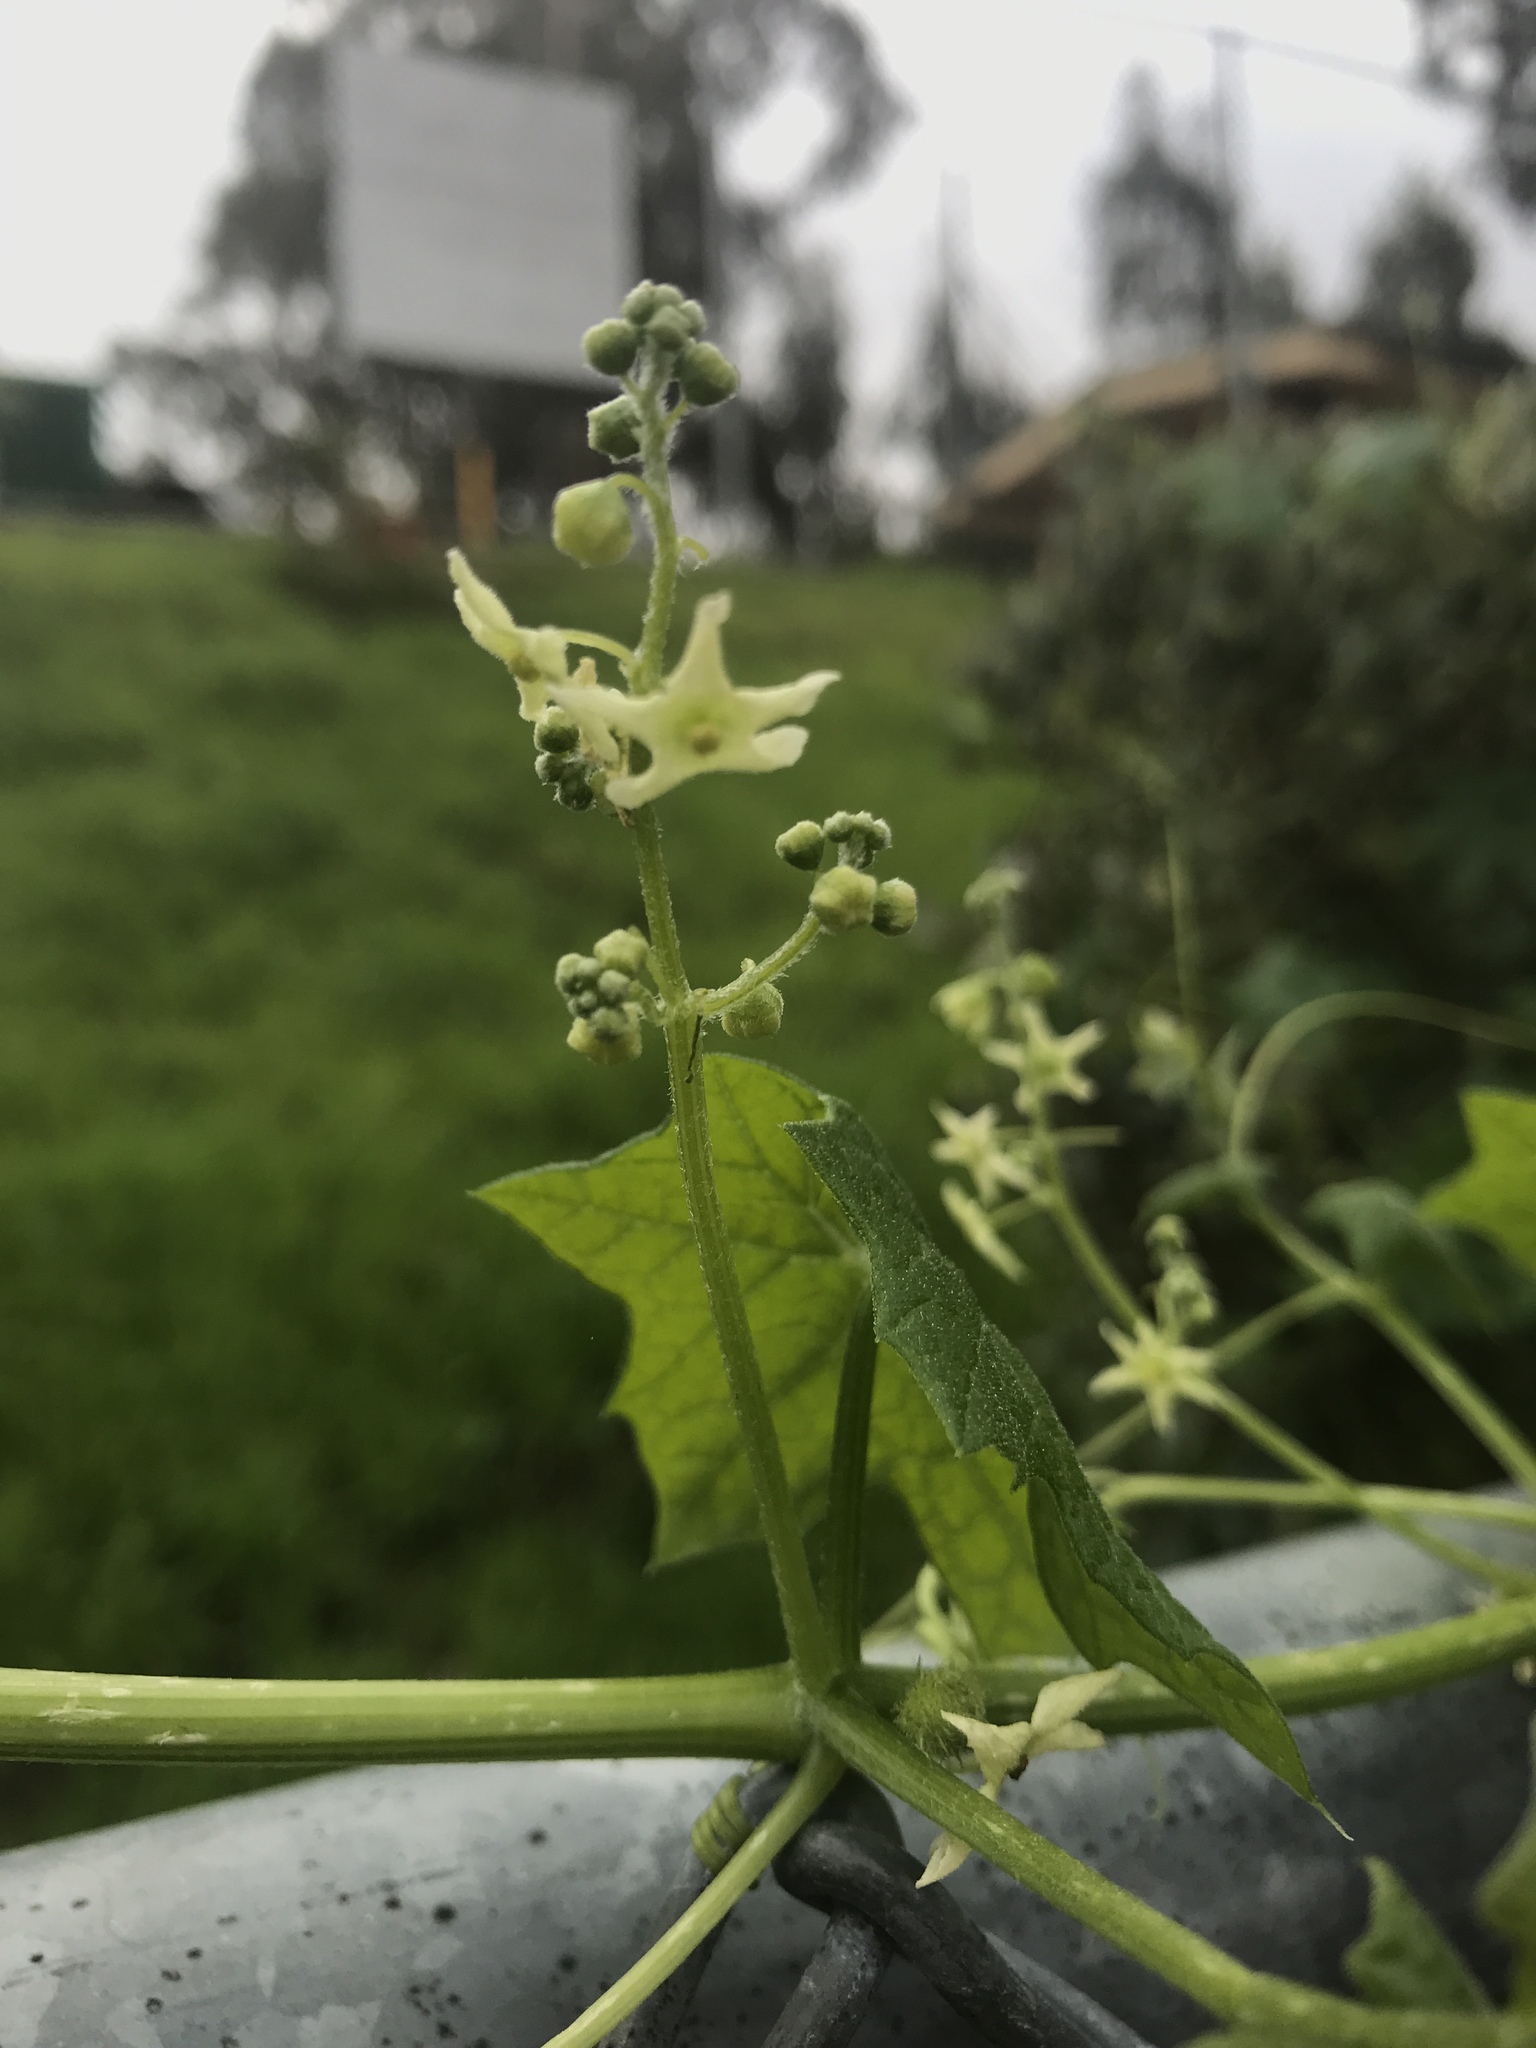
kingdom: Plantae
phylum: Tracheophyta
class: Magnoliopsida
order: Cucurbitales
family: Cucurbitaceae
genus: Marah
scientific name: Marah fabacea
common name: California manroot
